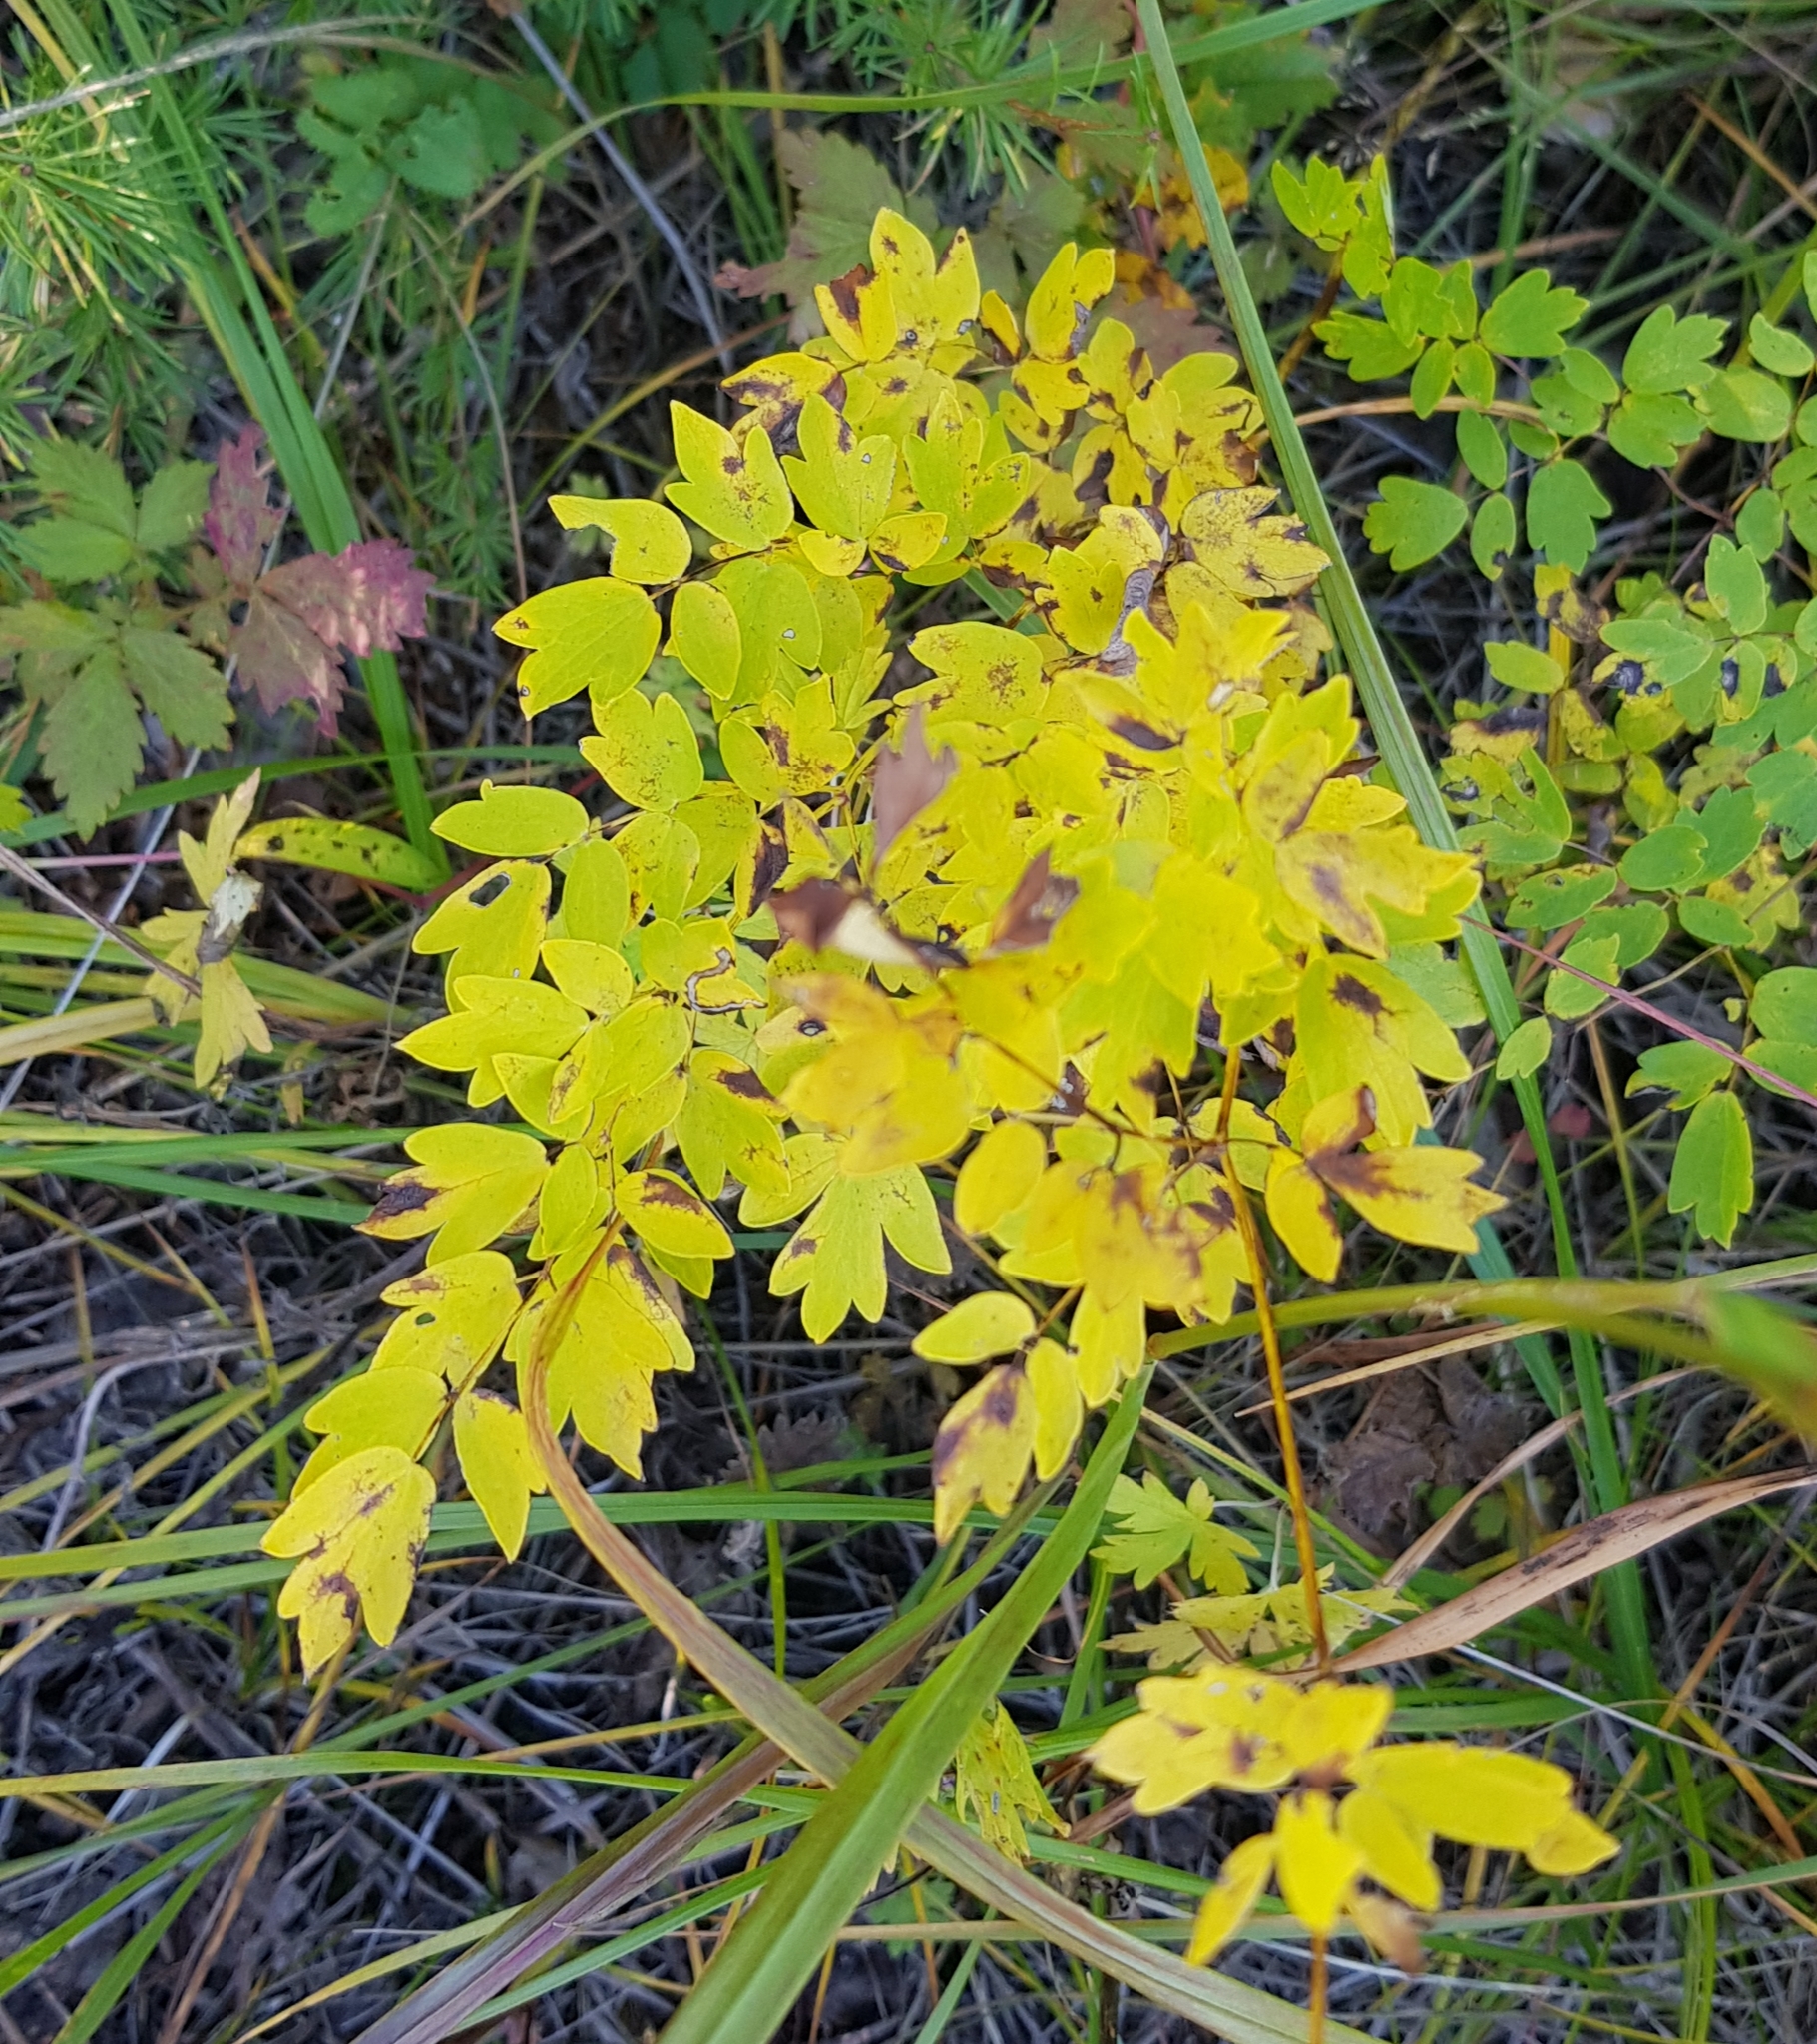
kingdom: Plantae
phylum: Tracheophyta
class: Magnoliopsida
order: Ranunculales
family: Ranunculaceae
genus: Thalictrum
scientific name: Thalictrum minus
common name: Lesser meadow-rue
